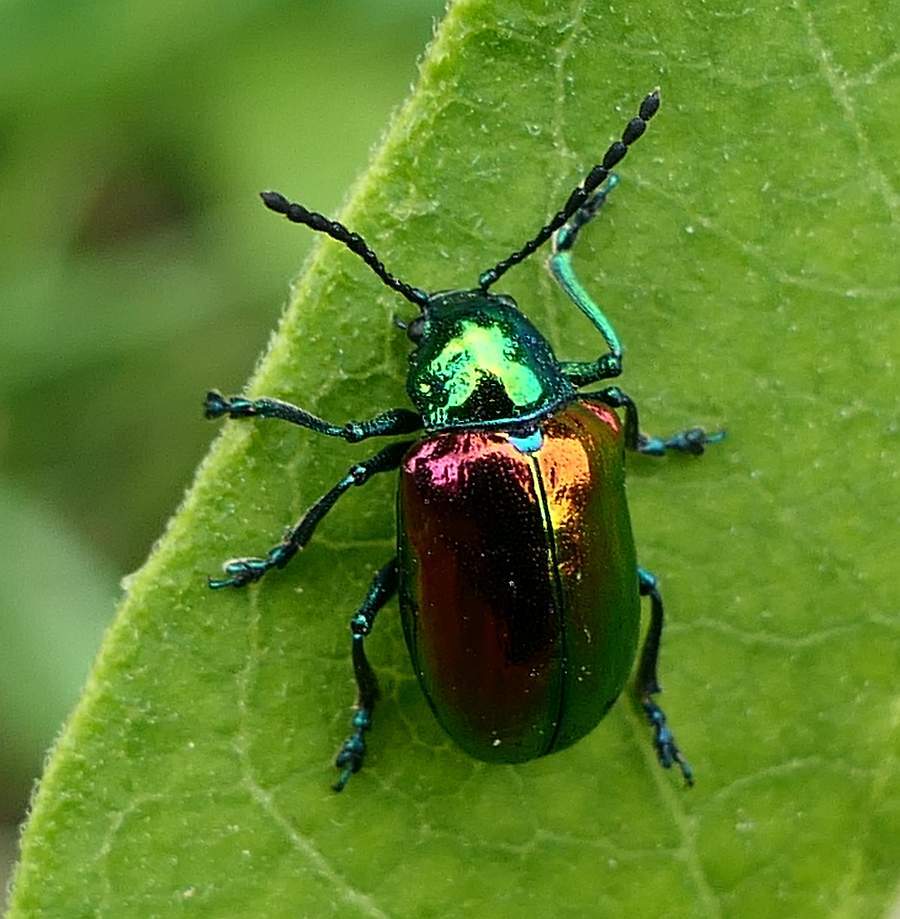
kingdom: Animalia
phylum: Arthropoda
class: Insecta
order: Coleoptera
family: Chrysomelidae
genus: Chrysochus
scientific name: Chrysochus auratus
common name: Dogbane leaf beetle
